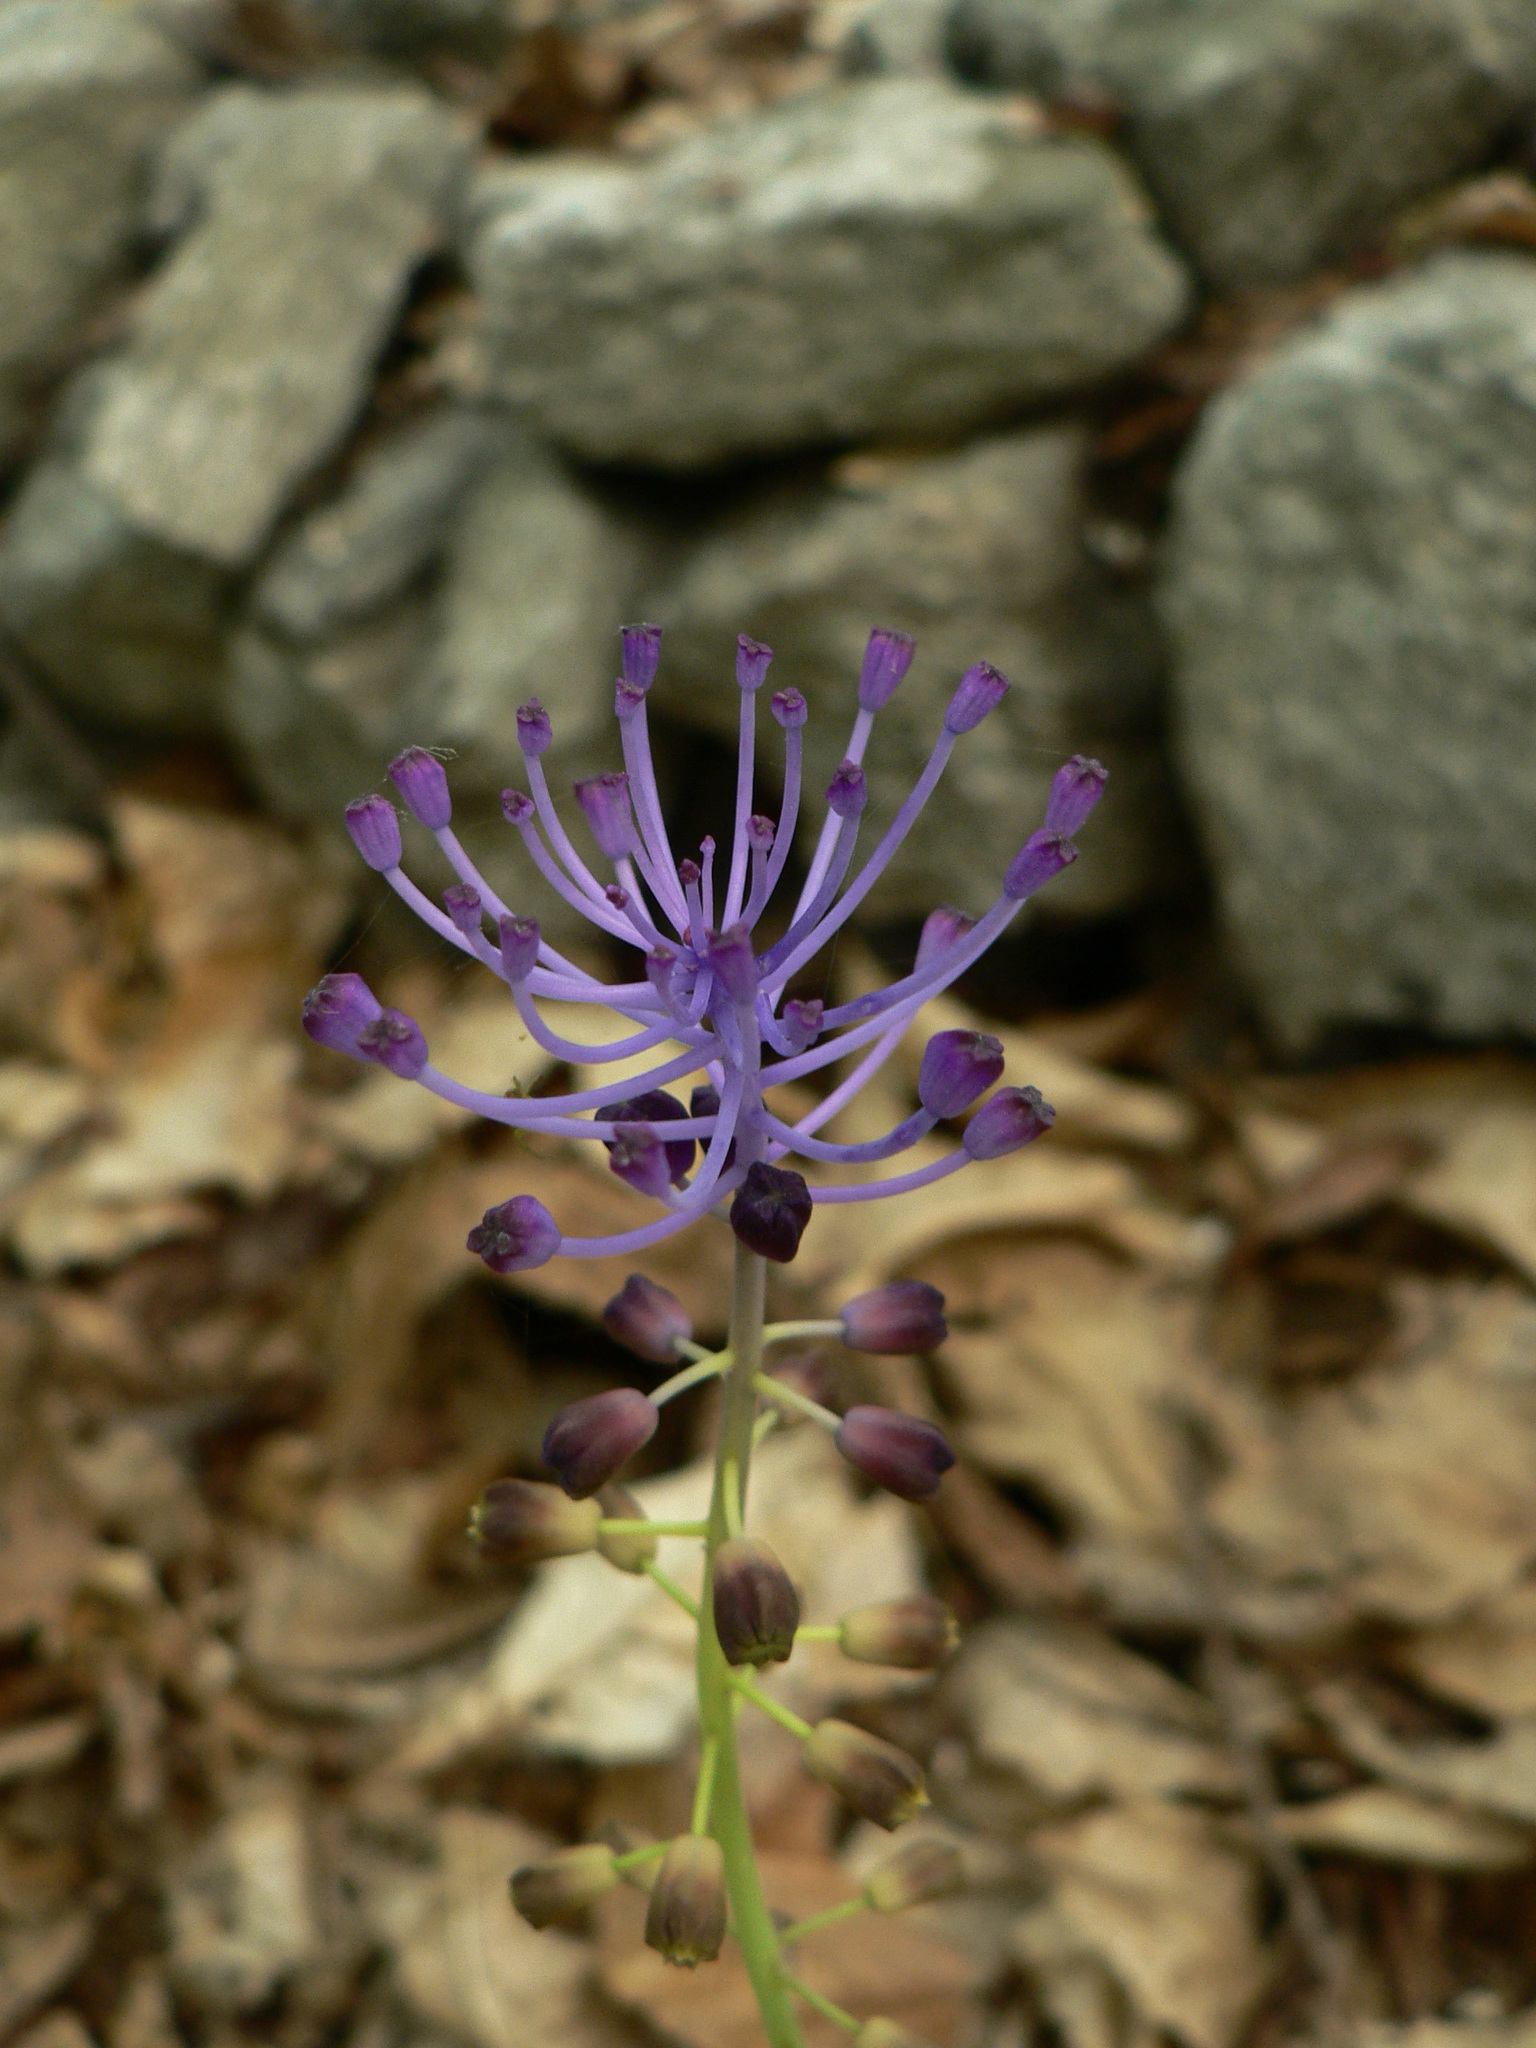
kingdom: Plantae
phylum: Tracheophyta
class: Liliopsida
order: Asparagales
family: Asparagaceae
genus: Muscari
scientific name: Muscari comosum
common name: Tassel hyacinth
